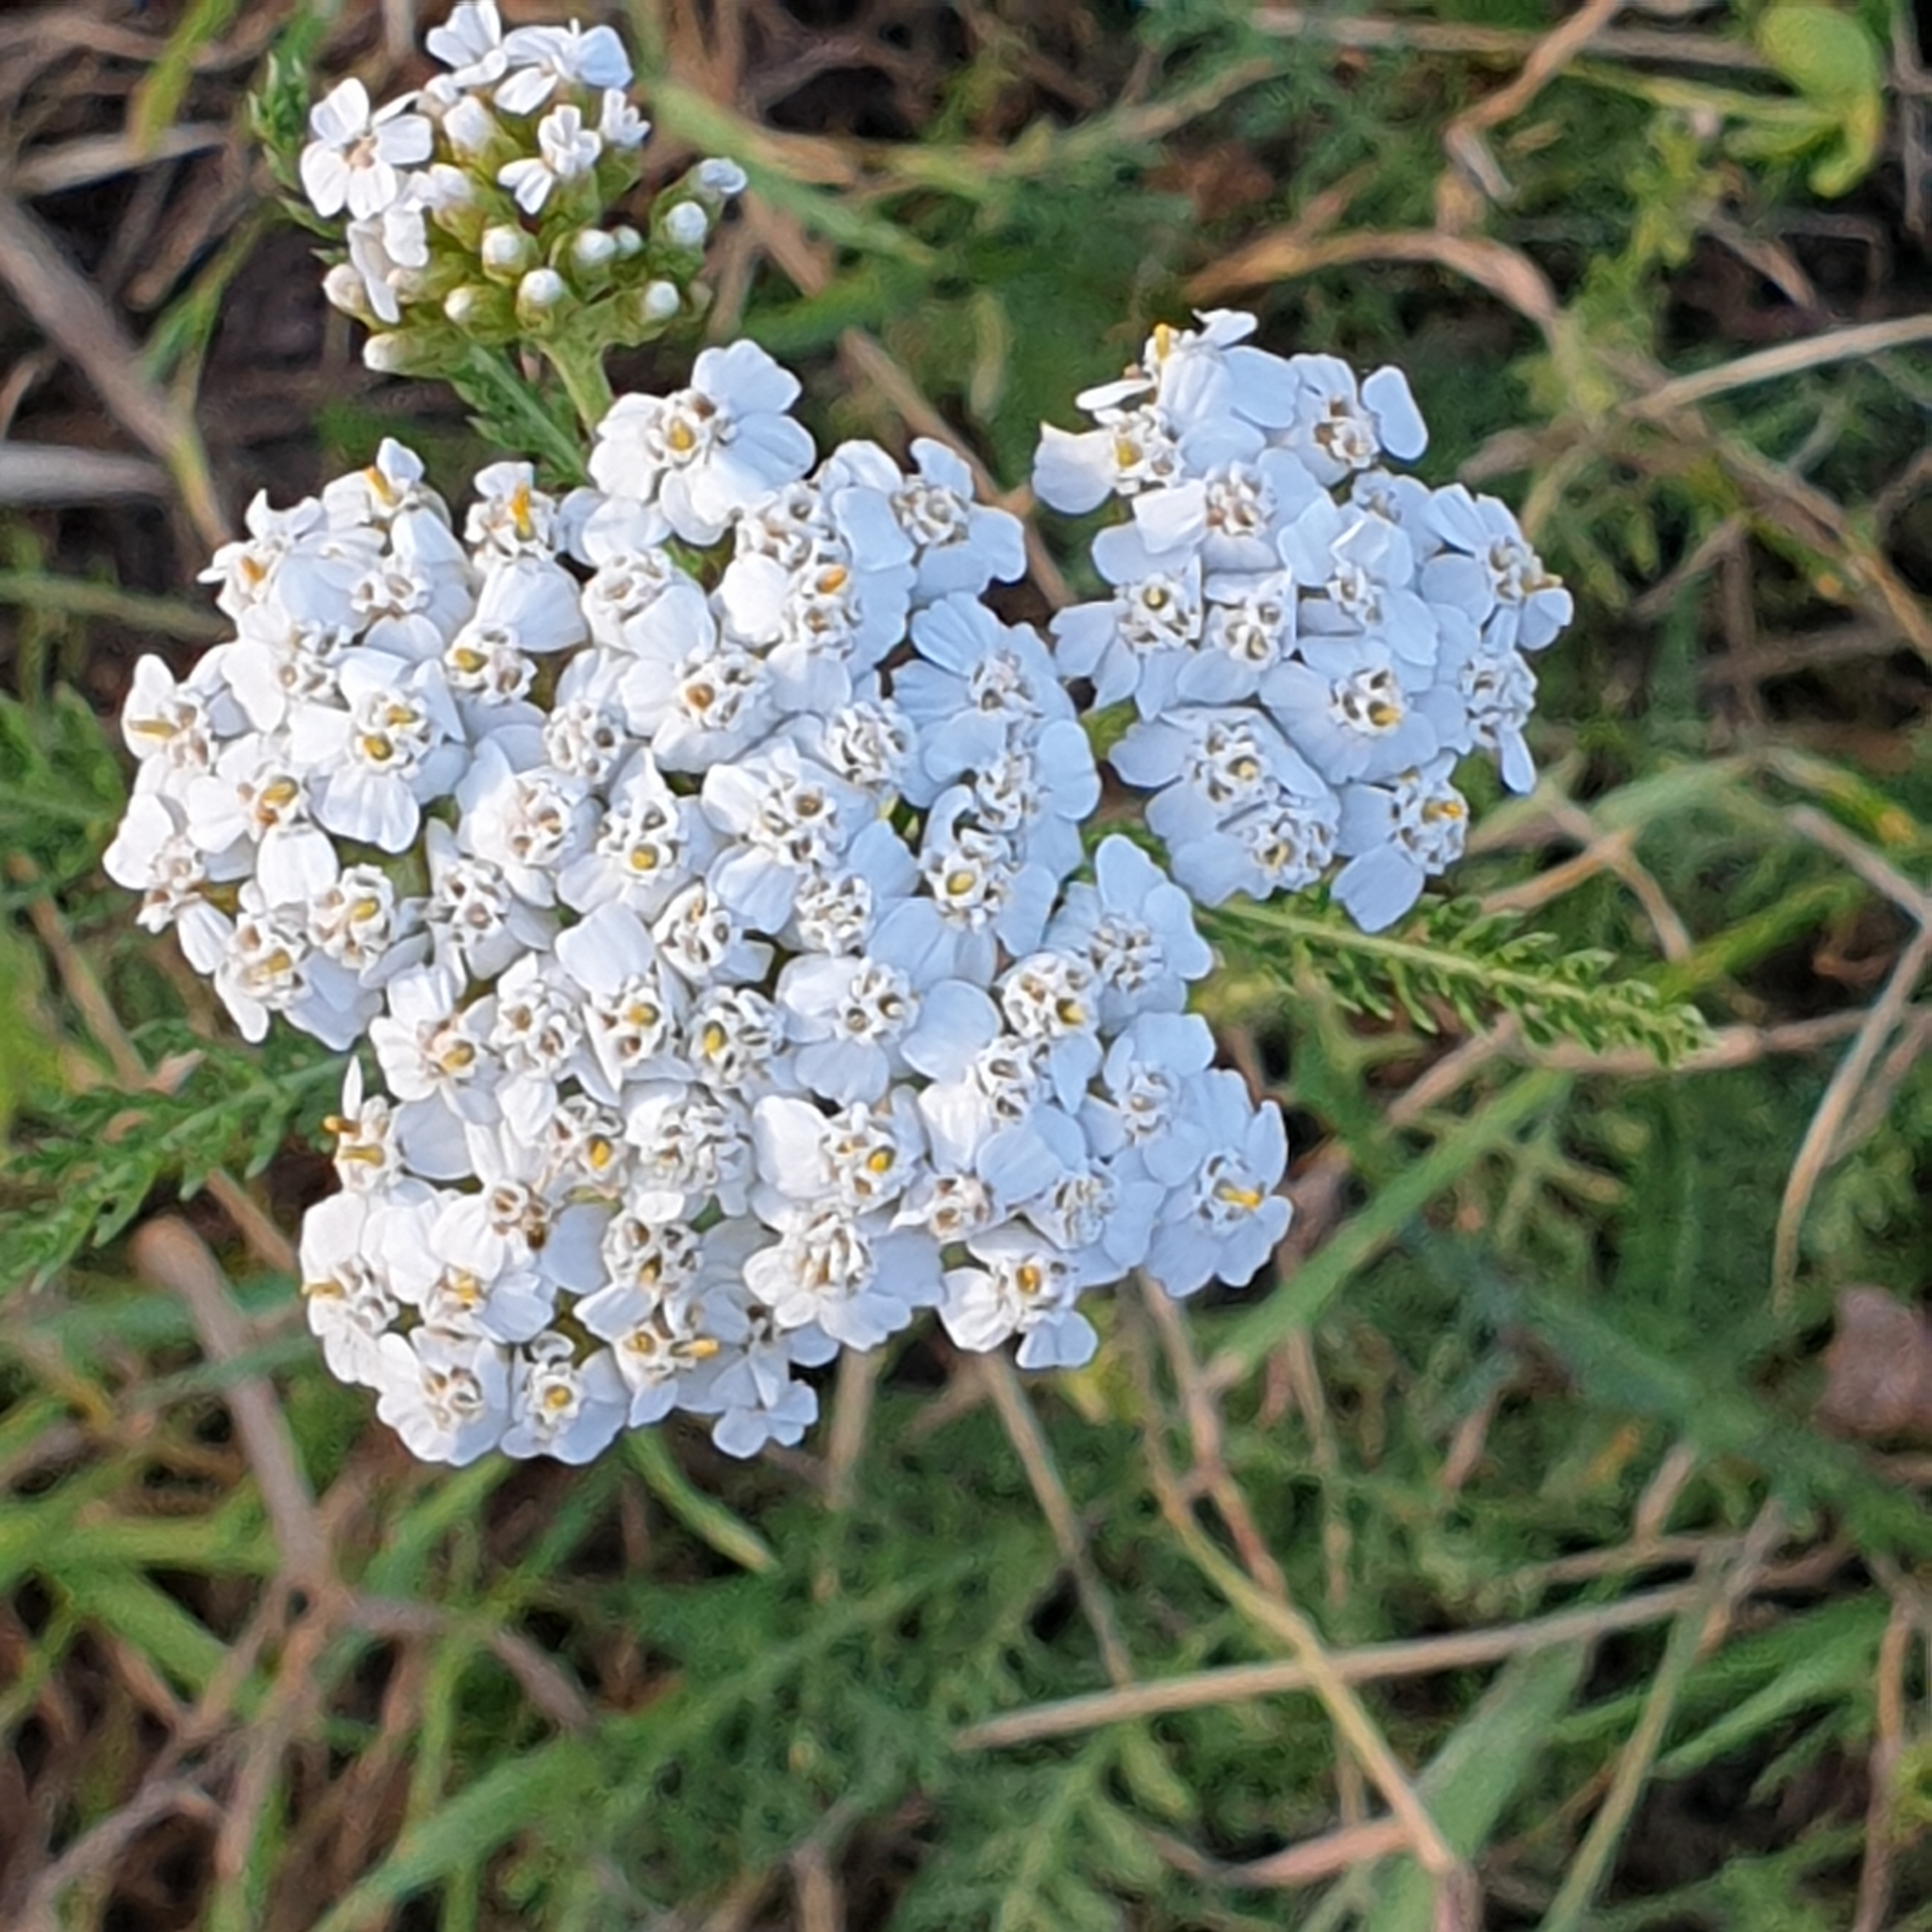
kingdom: Plantae
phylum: Tracheophyta
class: Magnoliopsida
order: Asterales
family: Asteraceae
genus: Achillea
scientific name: Achillea millefolium
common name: Yarrow
